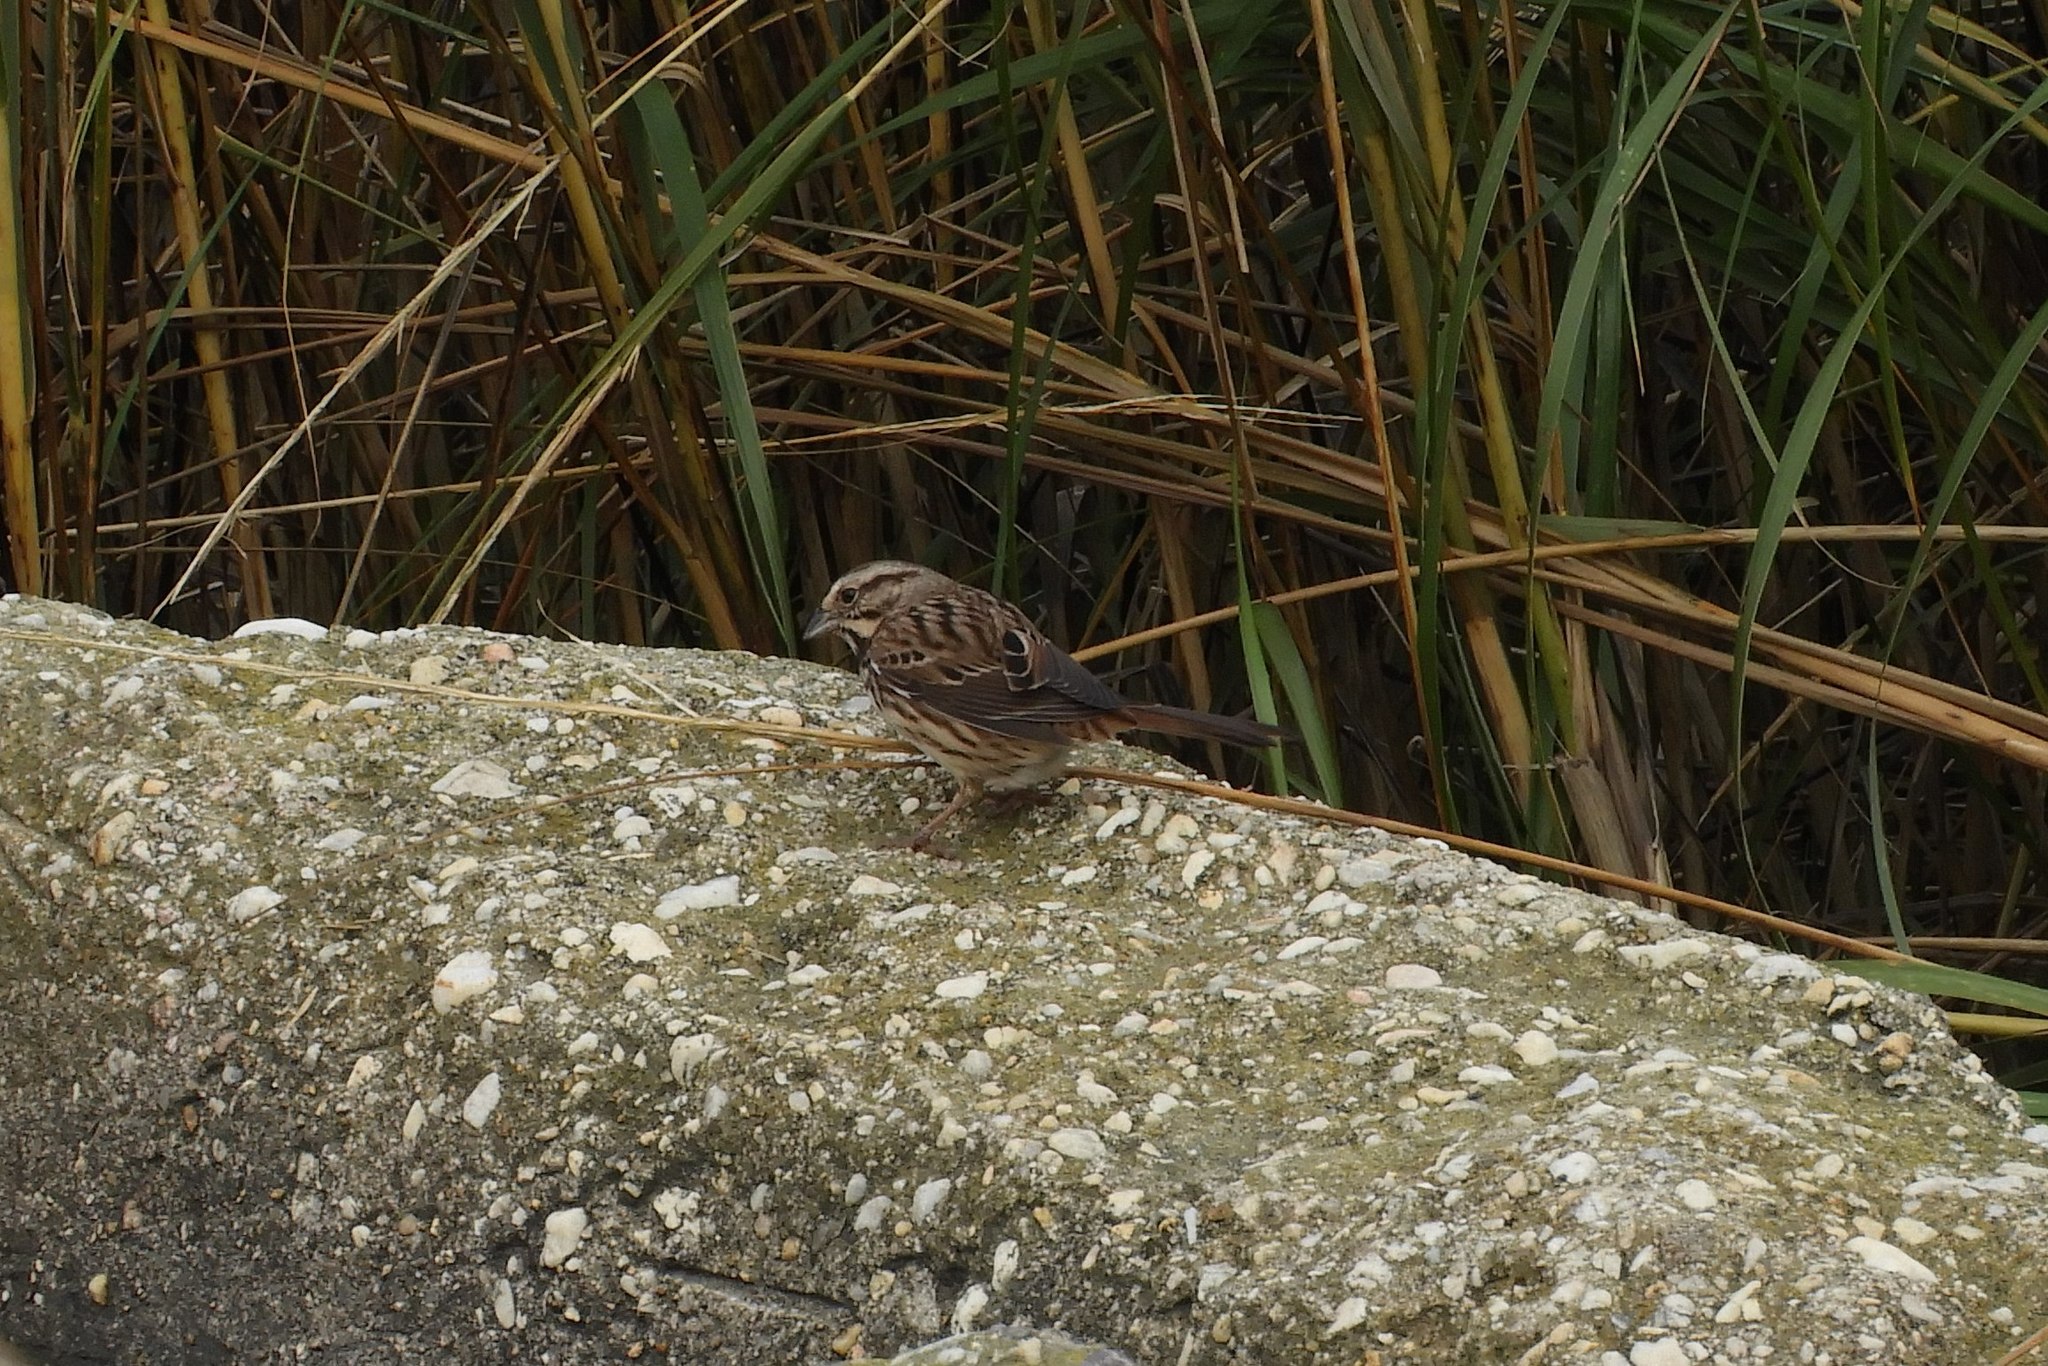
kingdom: Animalia
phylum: Chordata
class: Aves
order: Passeriformes
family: Passerellidae
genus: Melospiza
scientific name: Melospiza melodia
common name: Song sparrow
